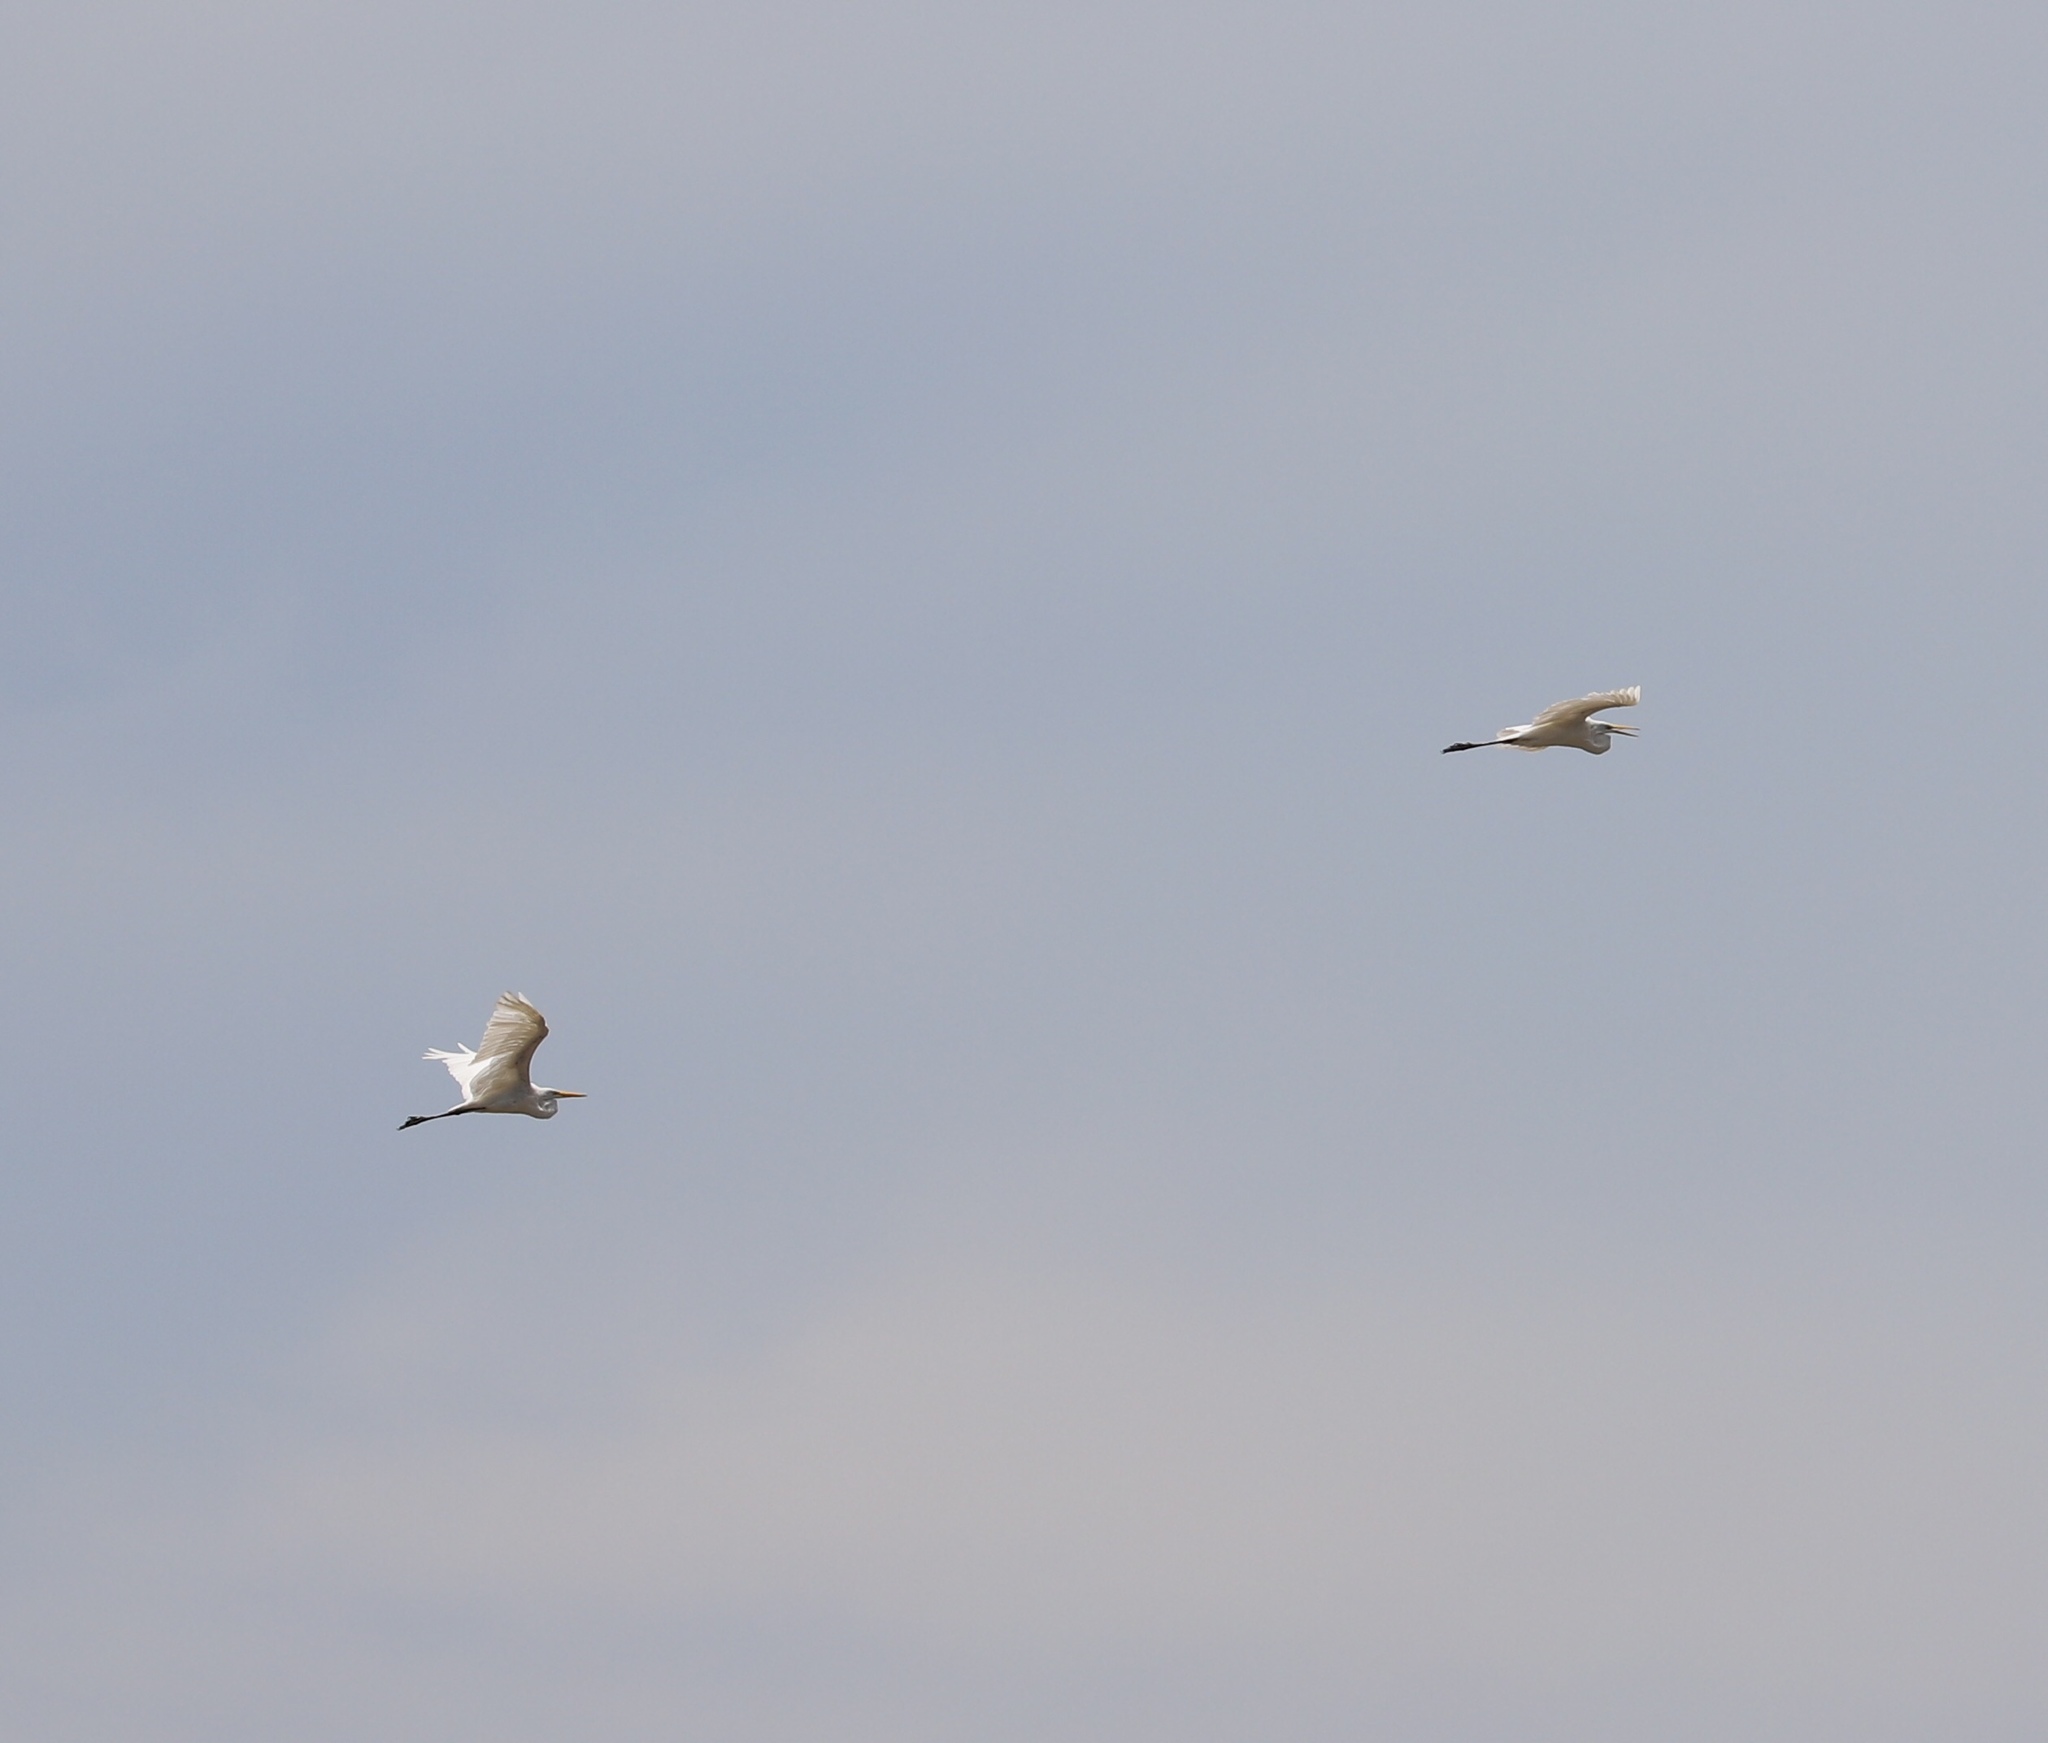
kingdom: Animalia
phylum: Chordata
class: Aves
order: Pelecaniformes
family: Ardeidae
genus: Ardea
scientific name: Ardea alba
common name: Great egret
